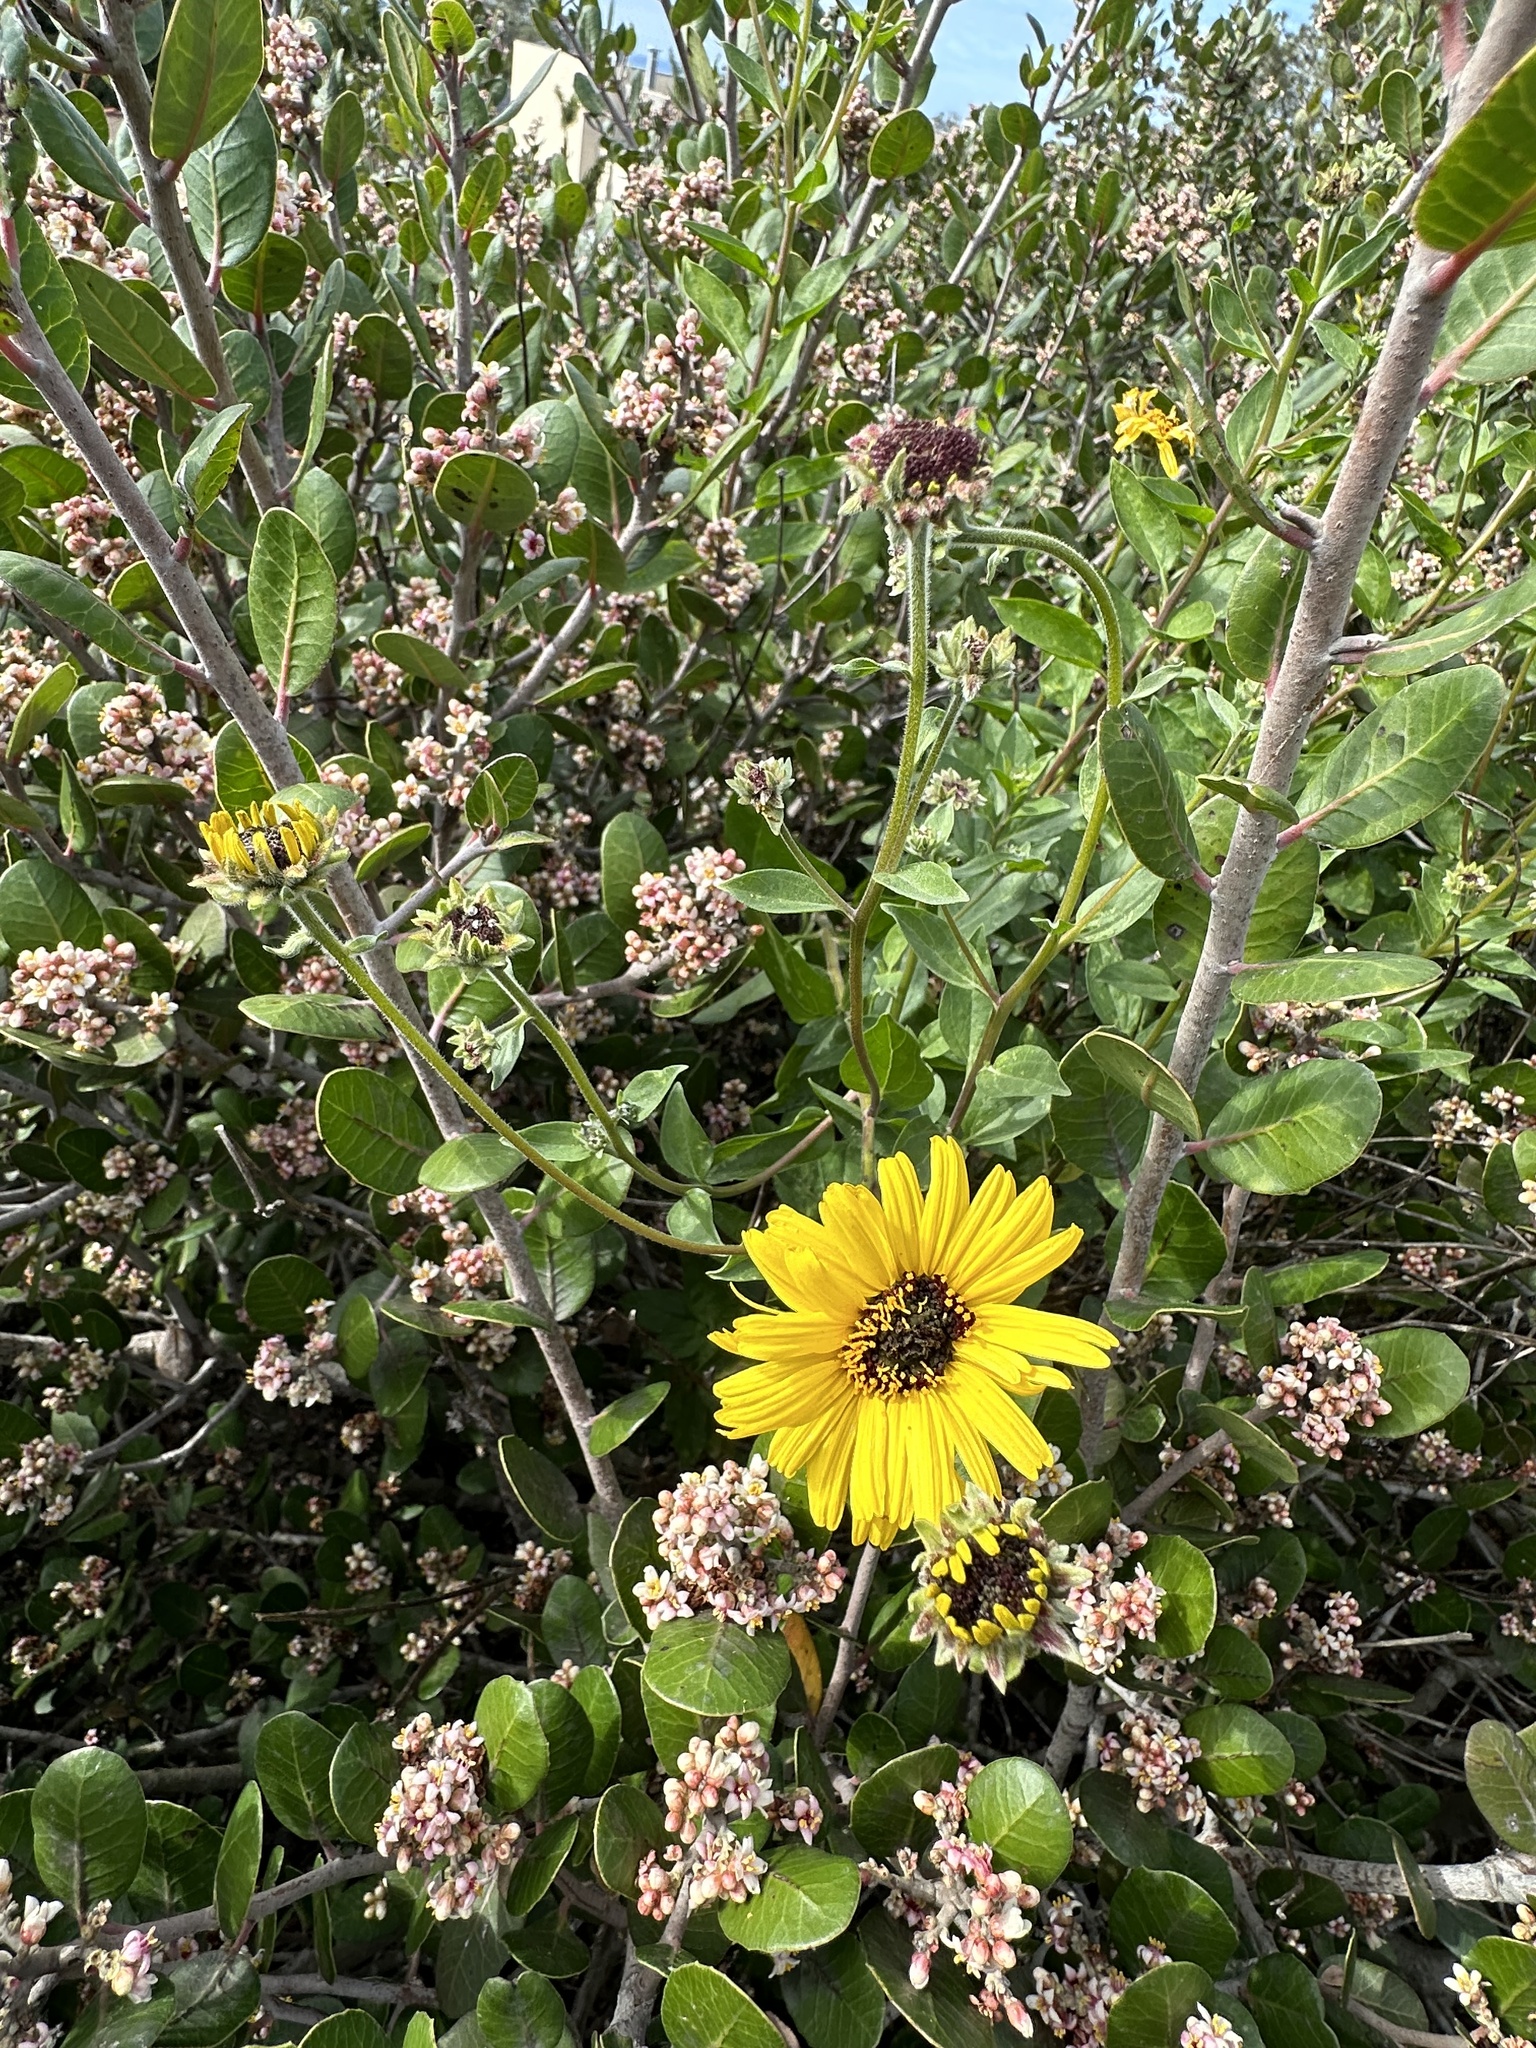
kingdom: Plantae
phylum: Tracheophyta
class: Magnoliopsida
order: Asterales
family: Asteraceae
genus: Encelia
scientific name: Encelia californica
